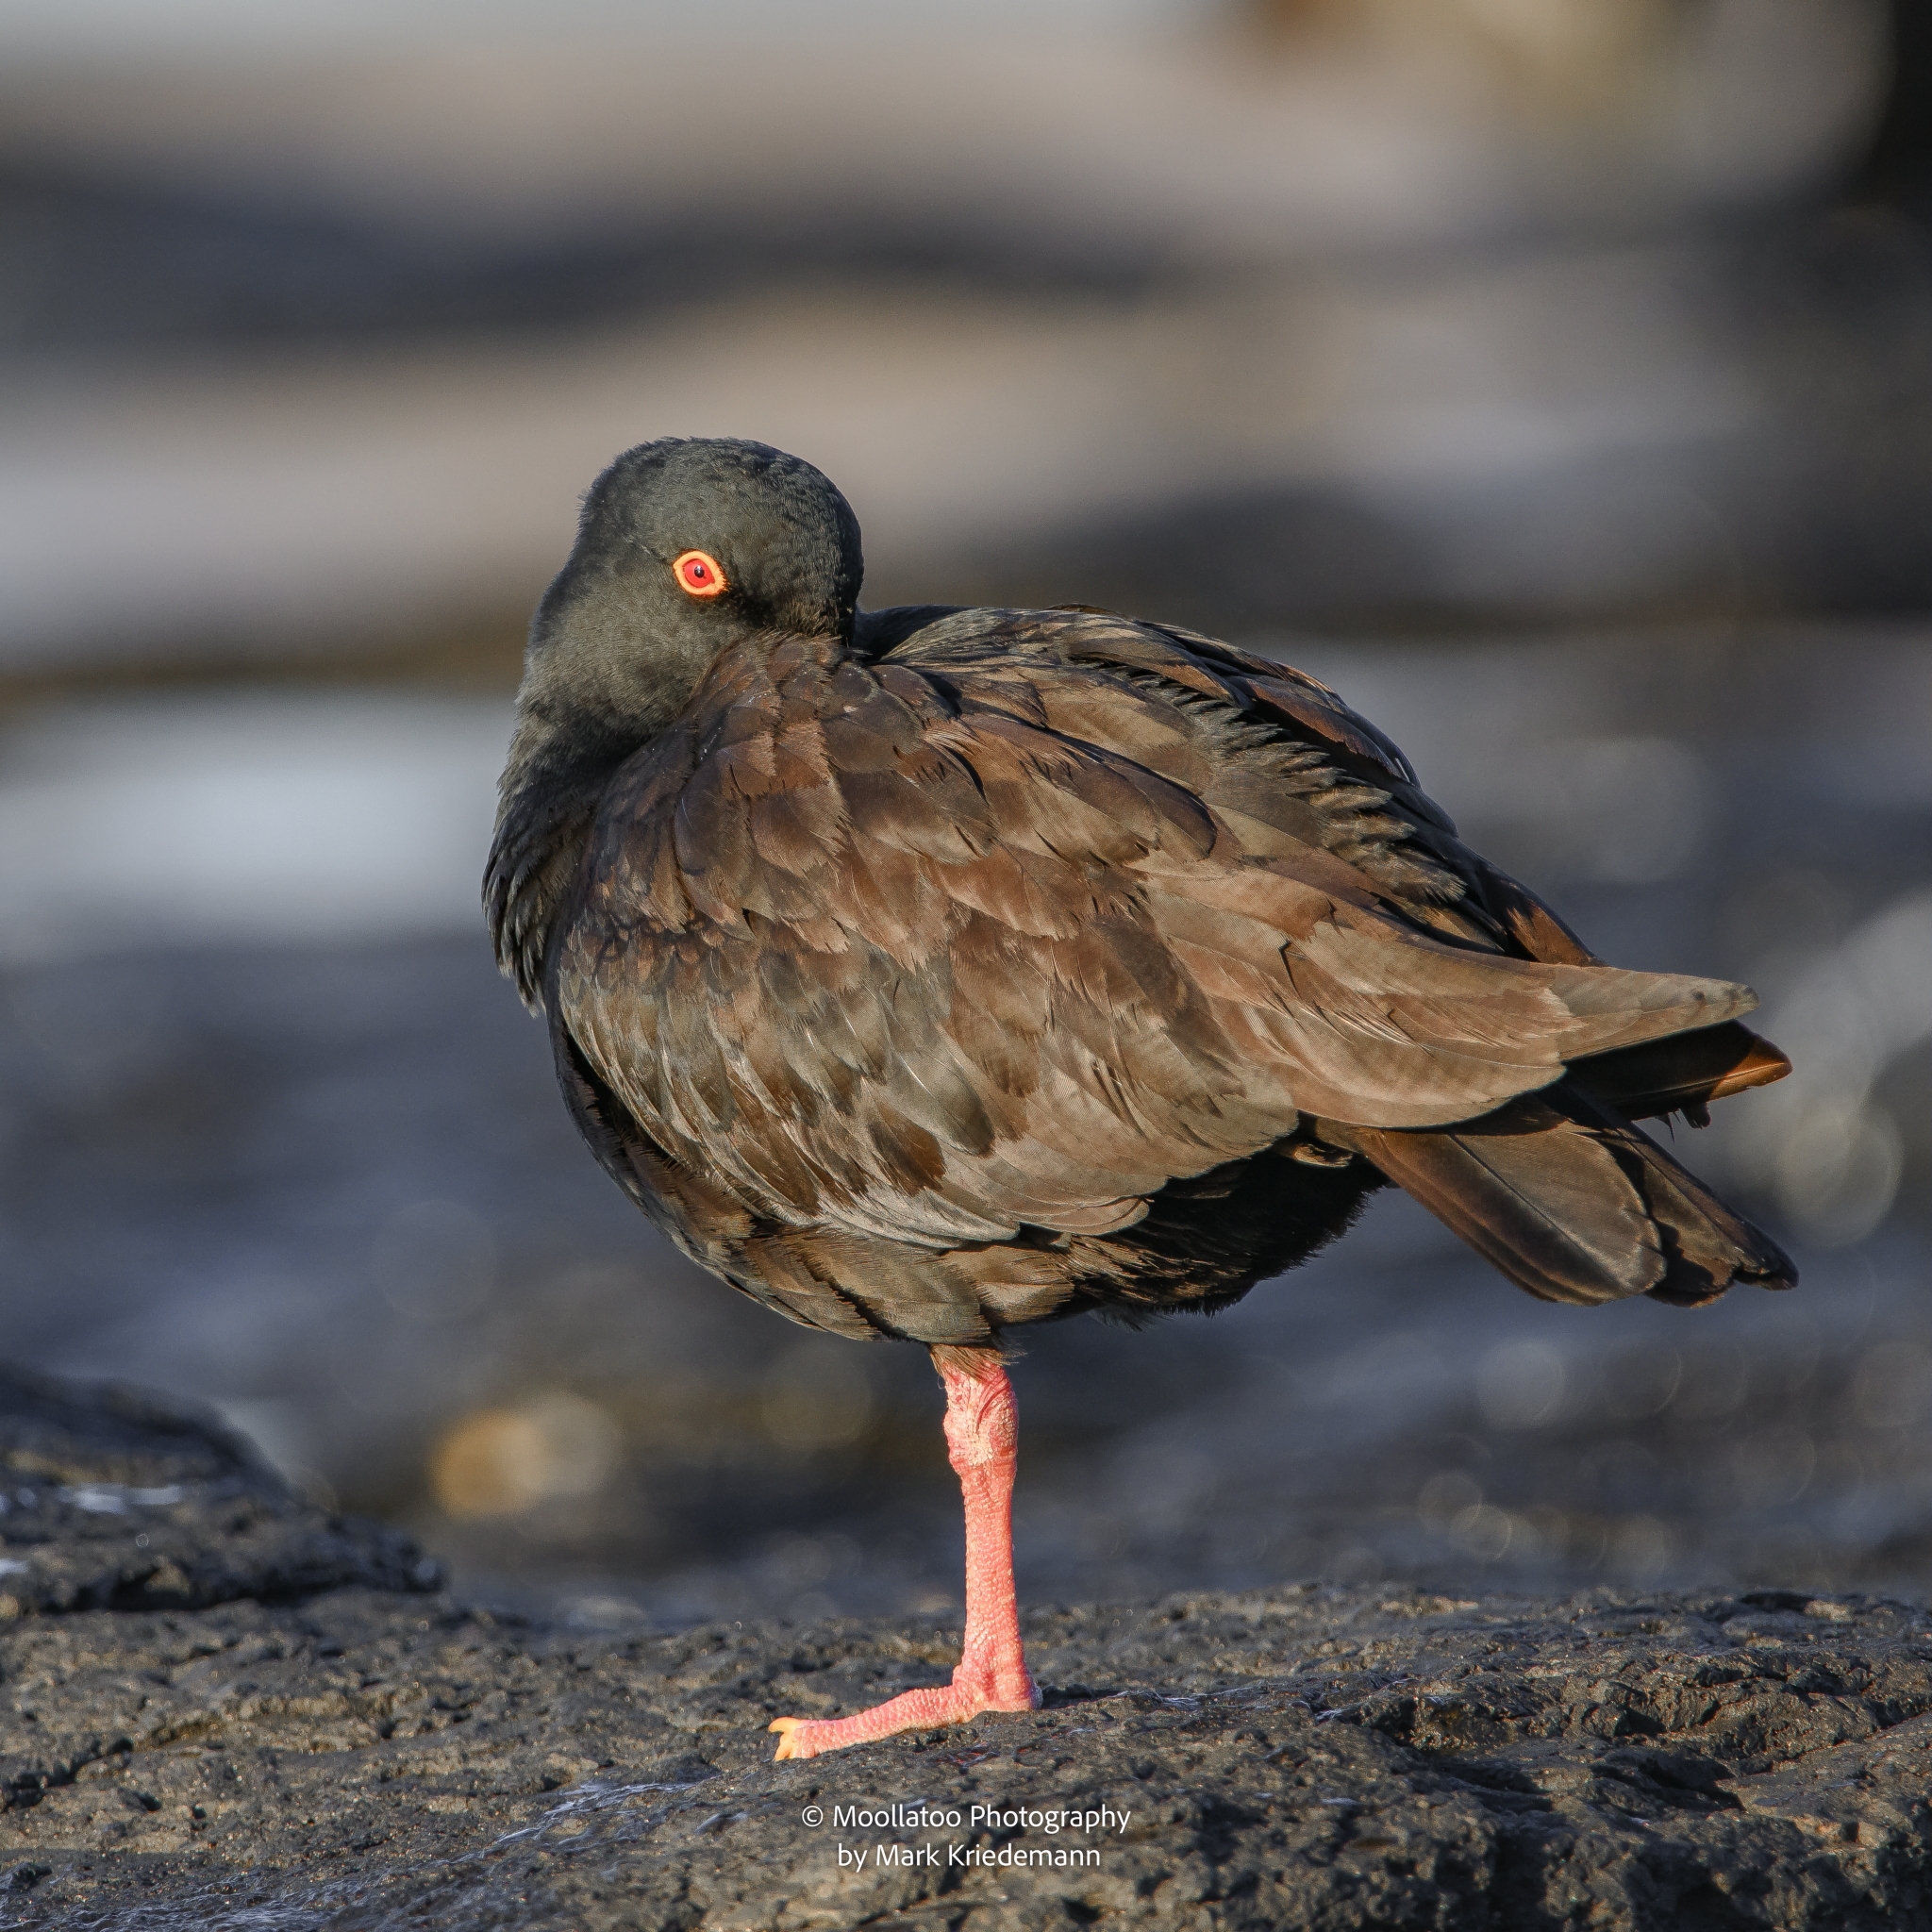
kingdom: Animalia
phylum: Chordata
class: Aves
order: Charadriiformes
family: Haematopodidae
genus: Haematopus
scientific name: Haematopus fuliginosus
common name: Sooty oystercatcher
